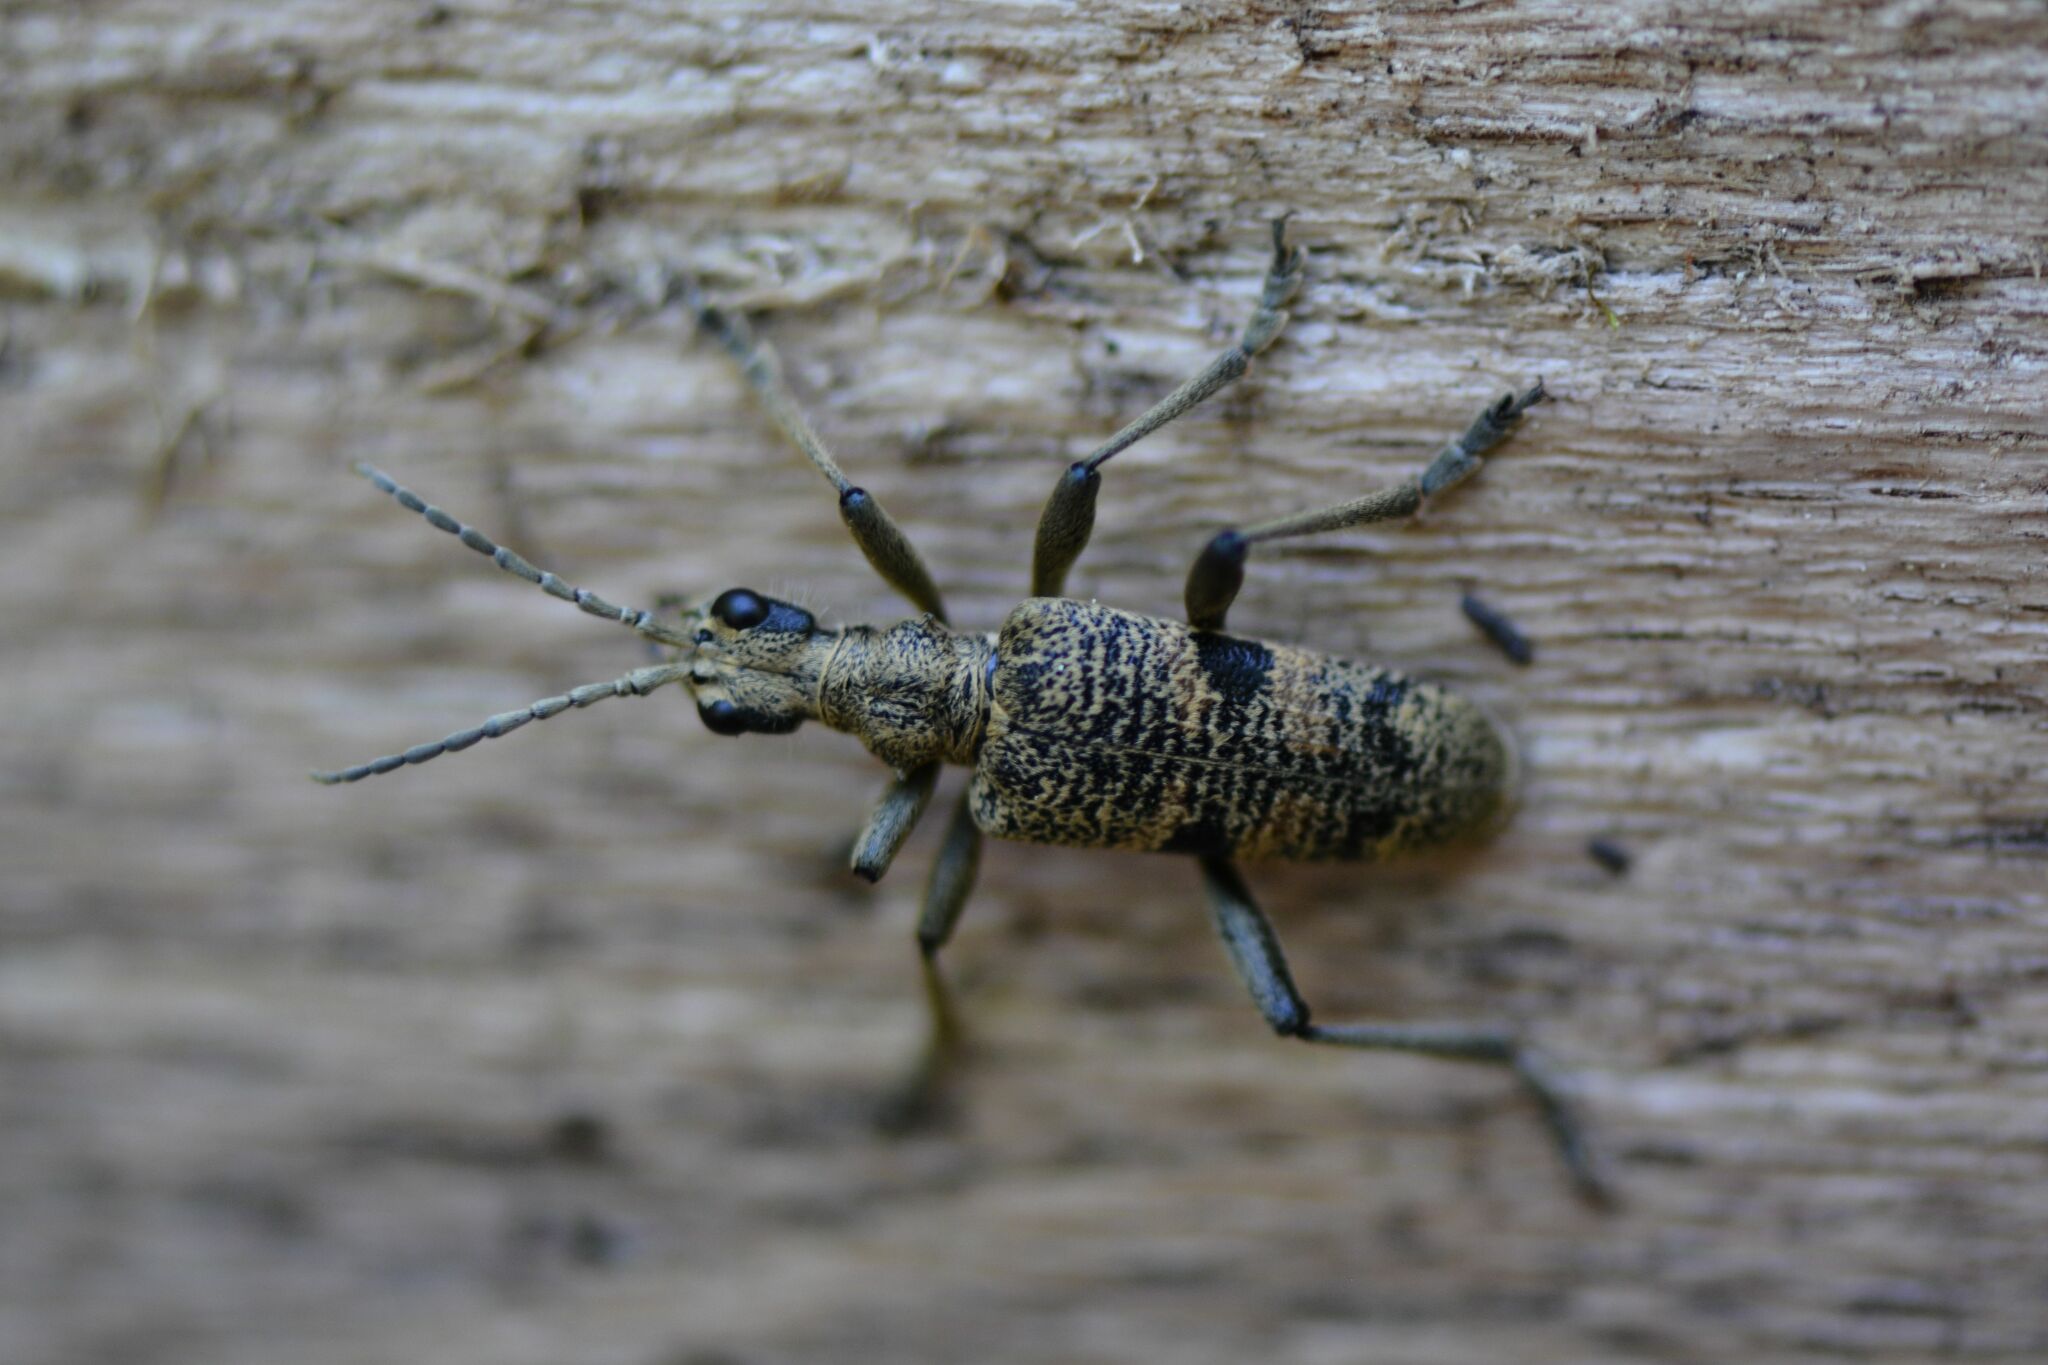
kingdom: Animalia
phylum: Arthropoda
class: Insecta
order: Coleoptera
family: Cerambycidae
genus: Rhagium
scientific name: Rhagium mordax
